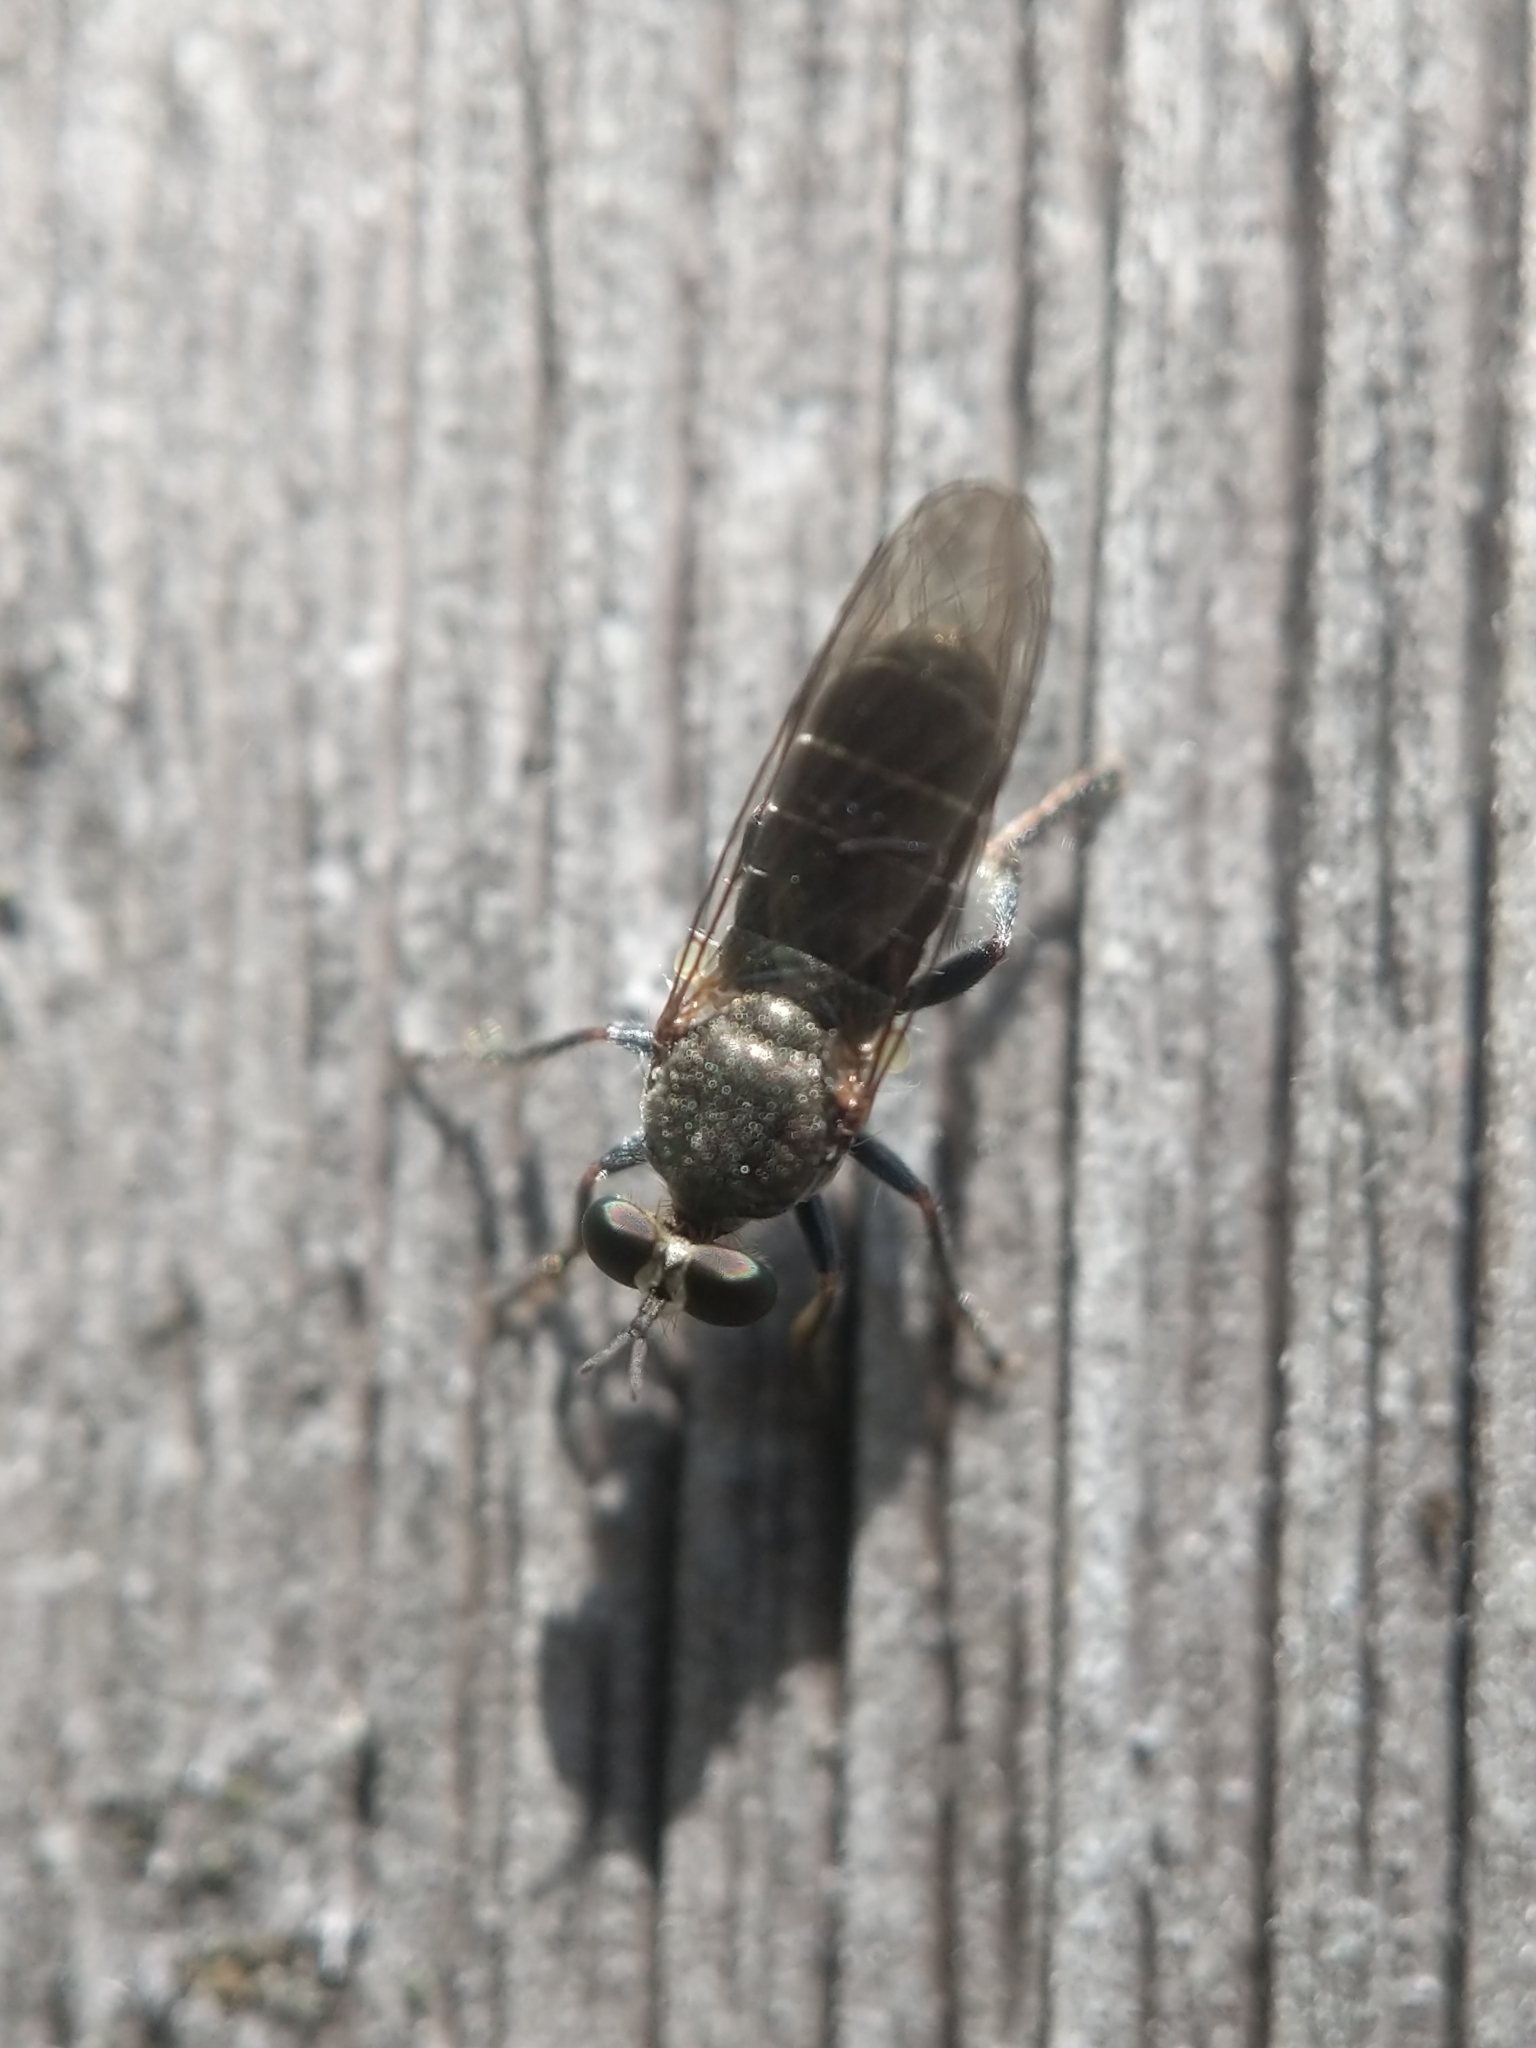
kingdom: Animalia
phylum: Arthropoda
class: Insecta
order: Diptera
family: Asilidae
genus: Atomosia
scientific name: Atomosia puella
